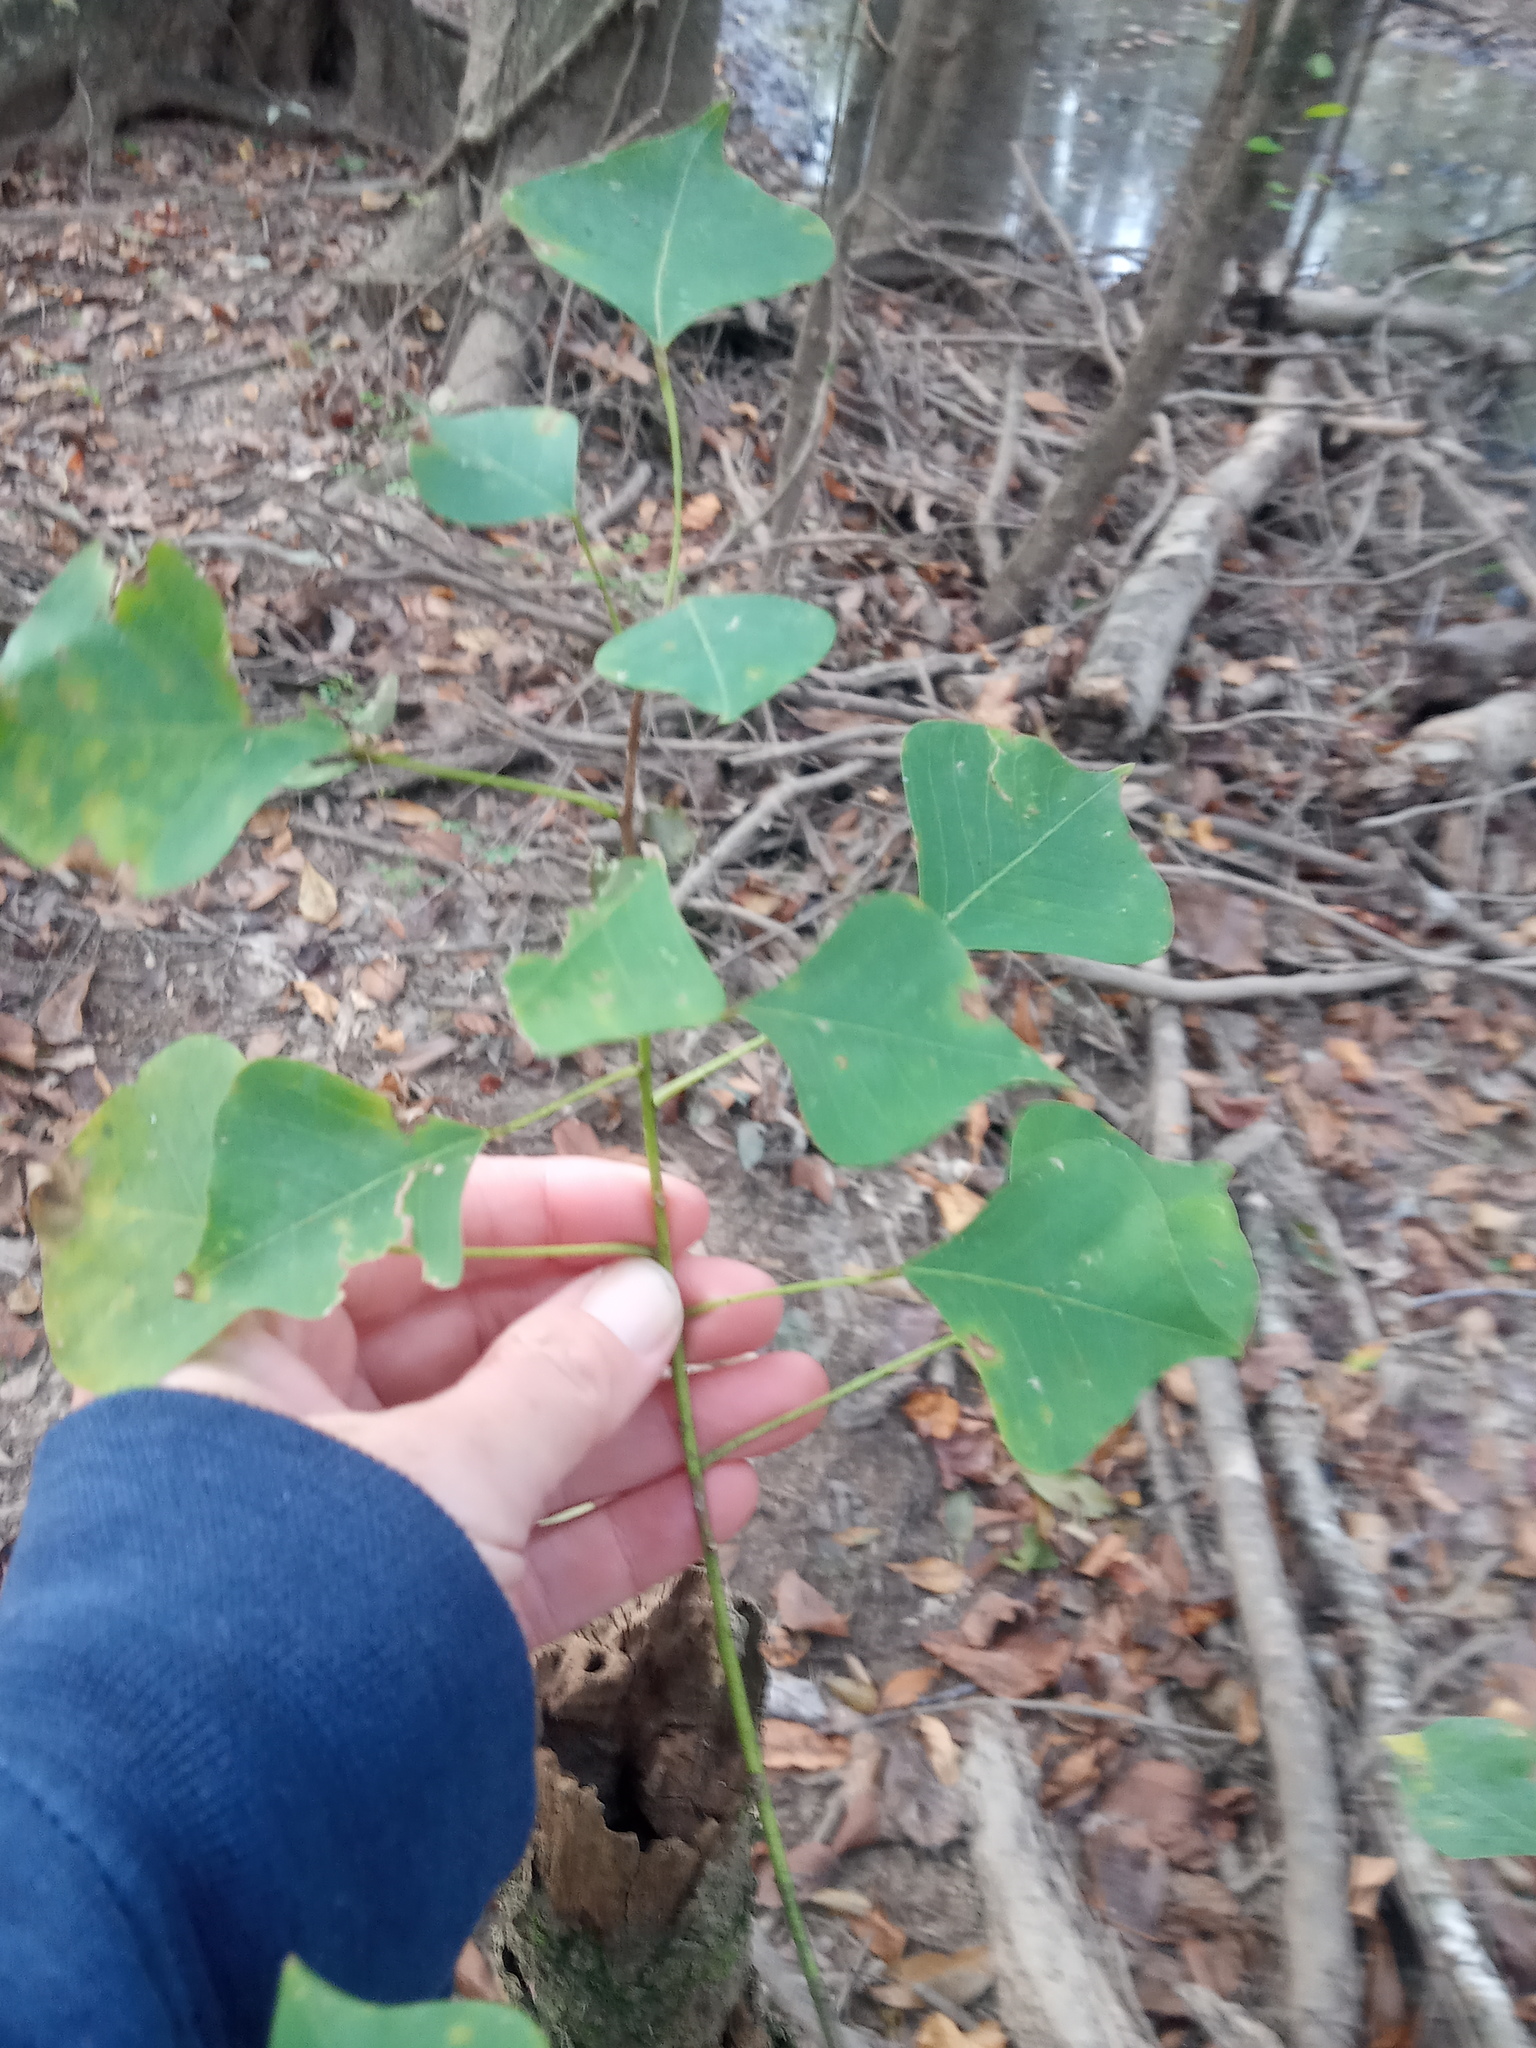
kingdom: Plantae
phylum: Tracheophyta
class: Magnoliopsida
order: Malpighiales
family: Euphorbiaceae
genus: Triadica
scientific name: Triadica sebifera
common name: Chinese tallow
